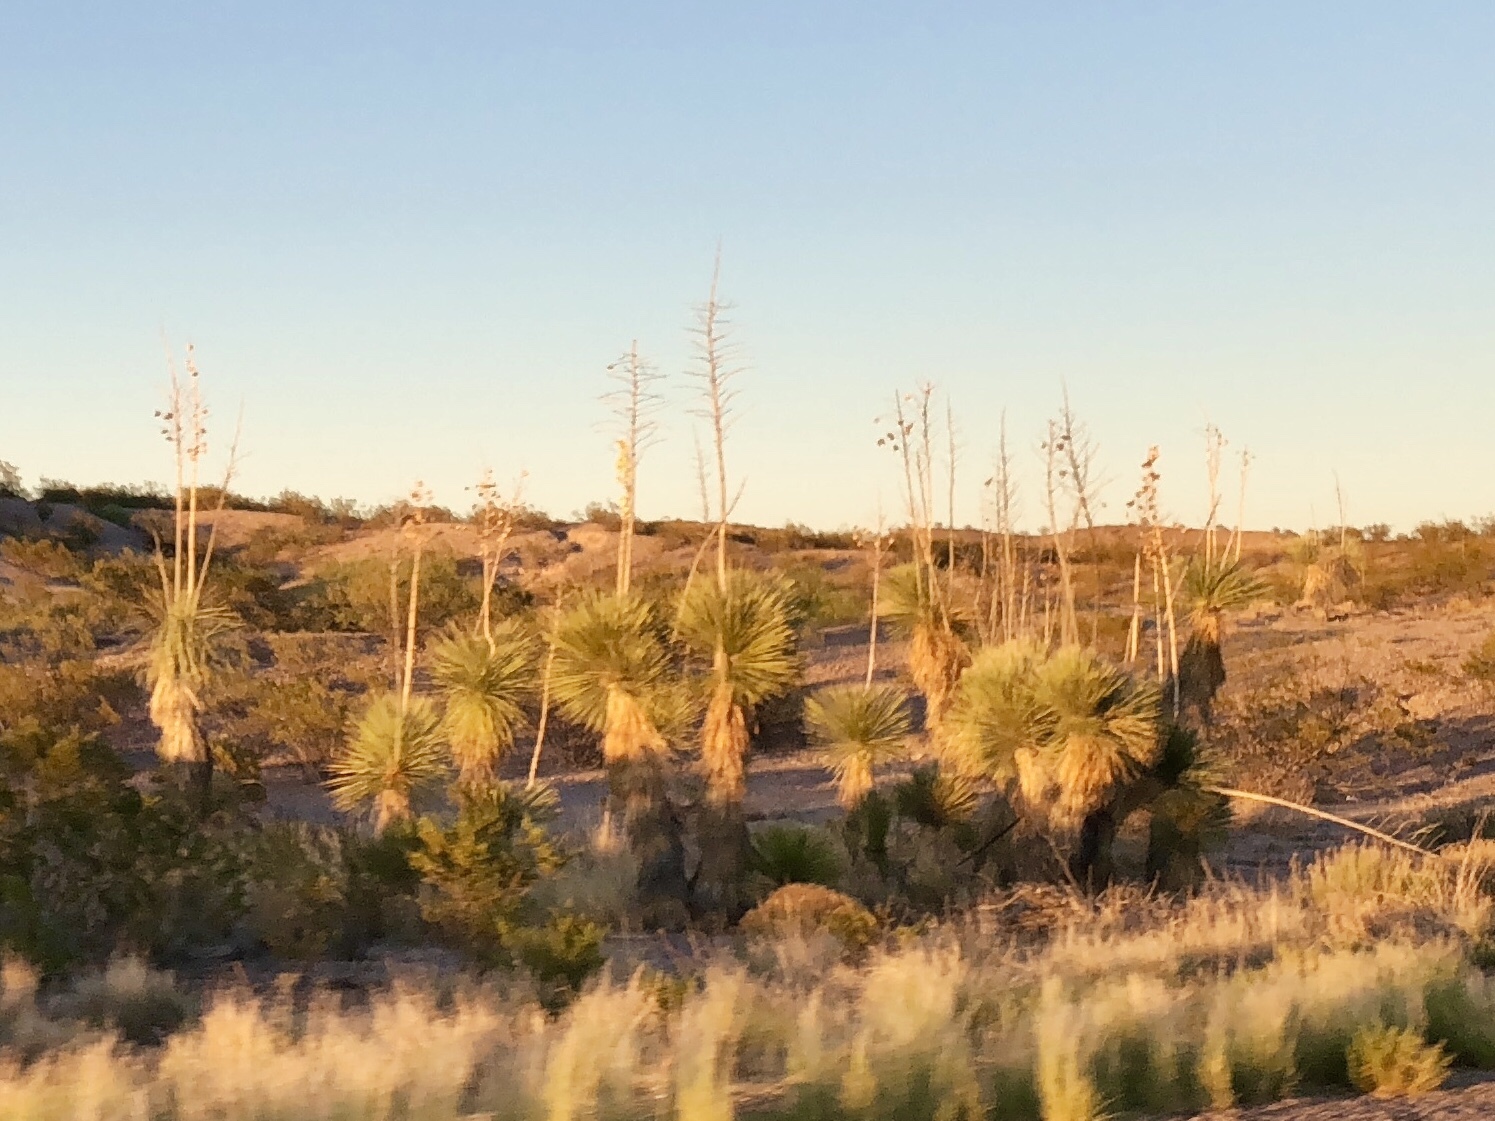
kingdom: Plantae
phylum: Tracheophyta
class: Liliopsida
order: Asparagales
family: Asparagaceae
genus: Yucca
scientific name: Yucca elata
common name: Palmella
